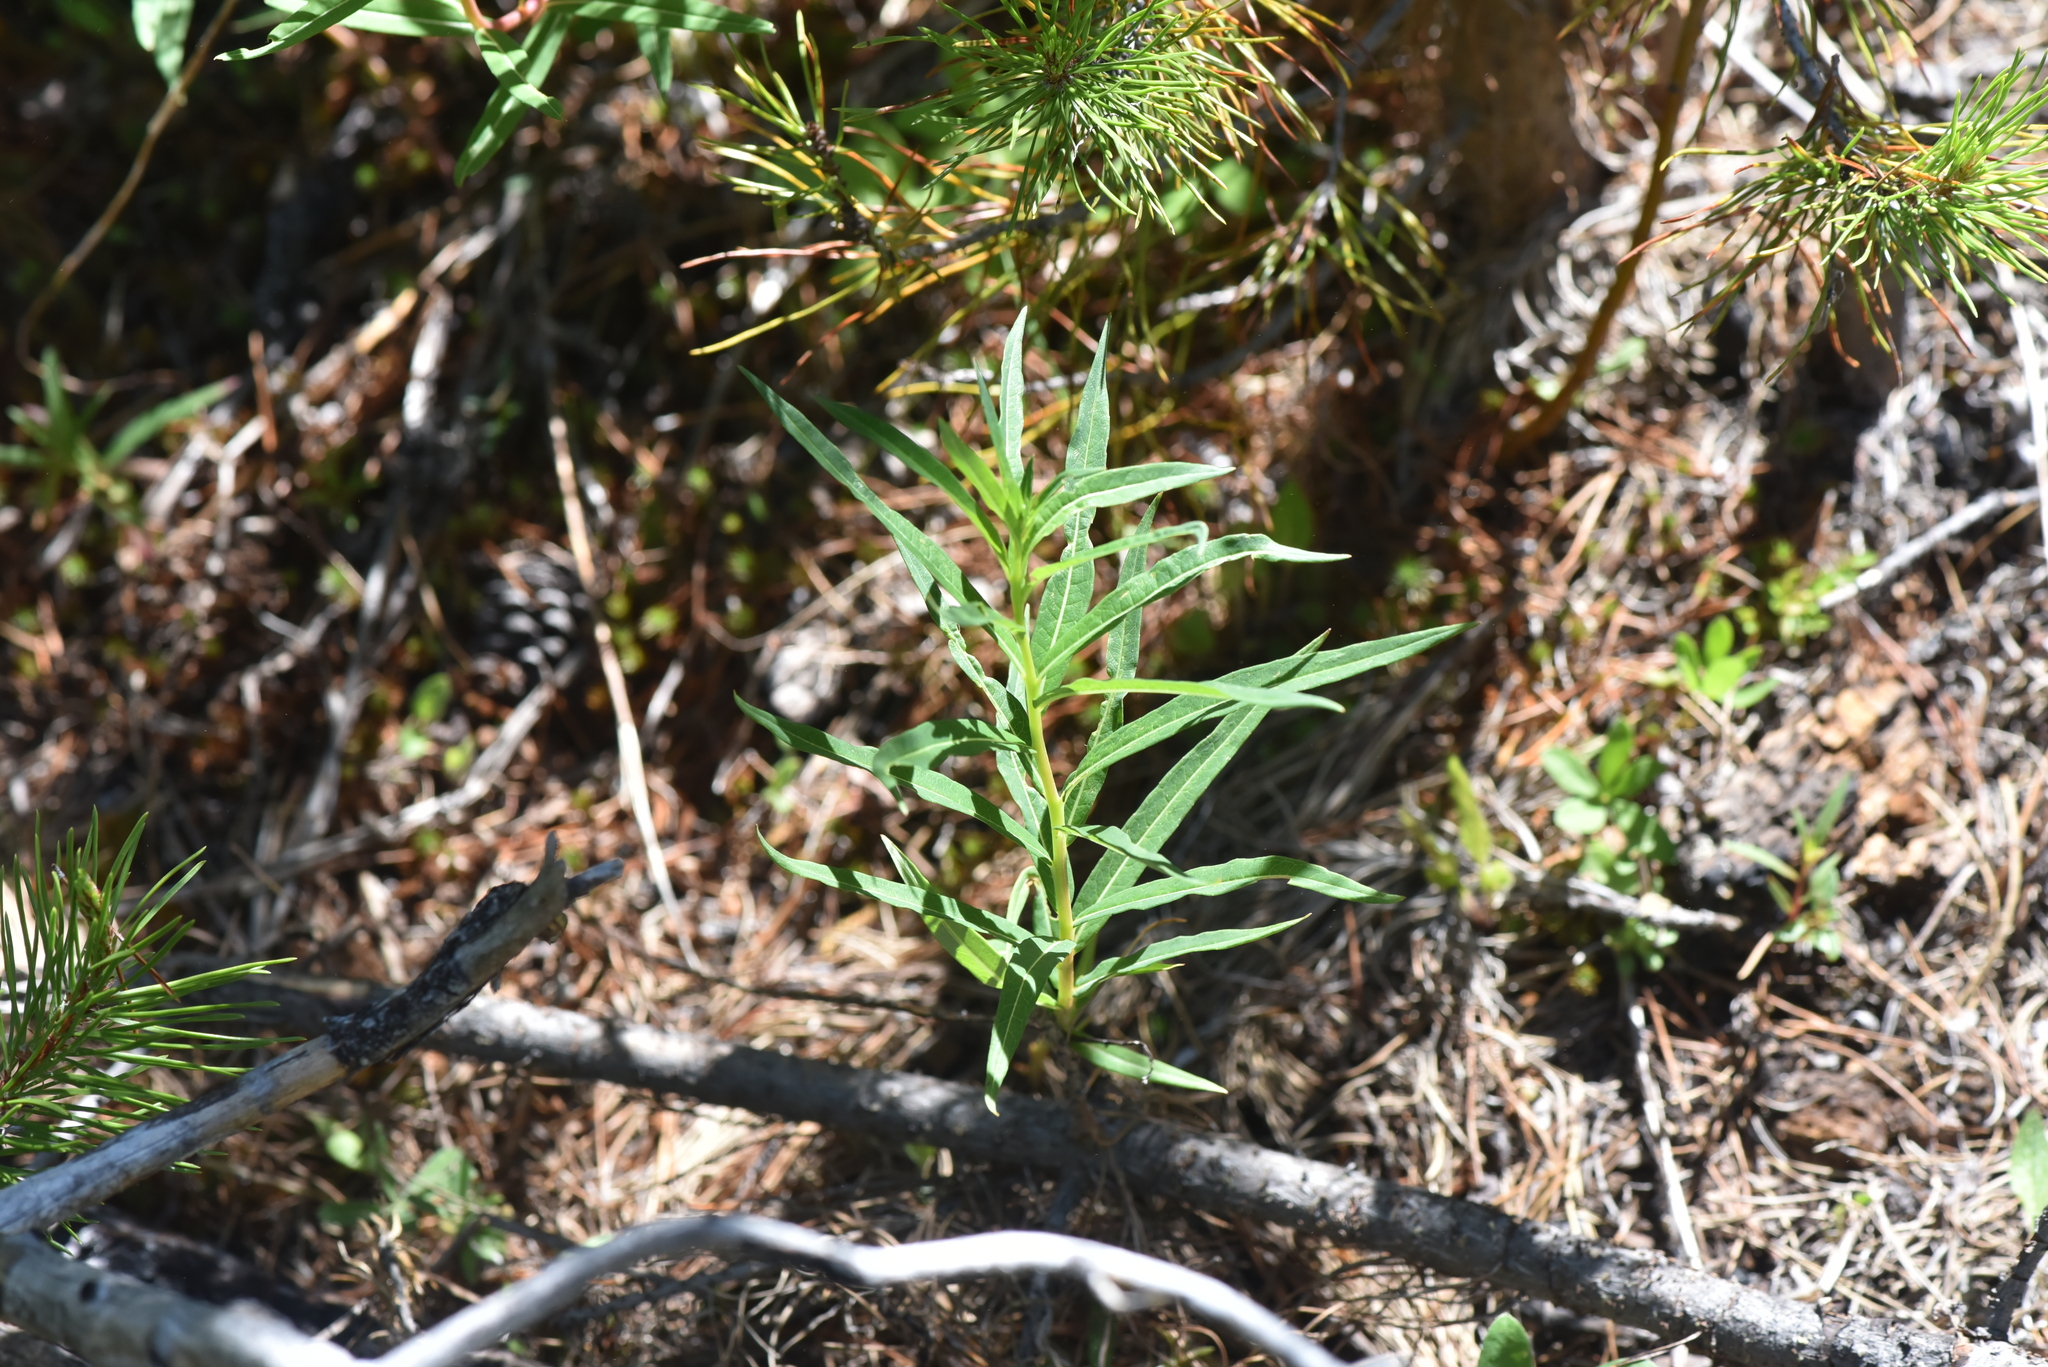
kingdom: Plantae
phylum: Tracheophyta
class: Magnoliopsida
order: Myrtales
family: Onagraceae
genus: Chamaenerion
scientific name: Chamaenerion angustifolium
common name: Fireweed
